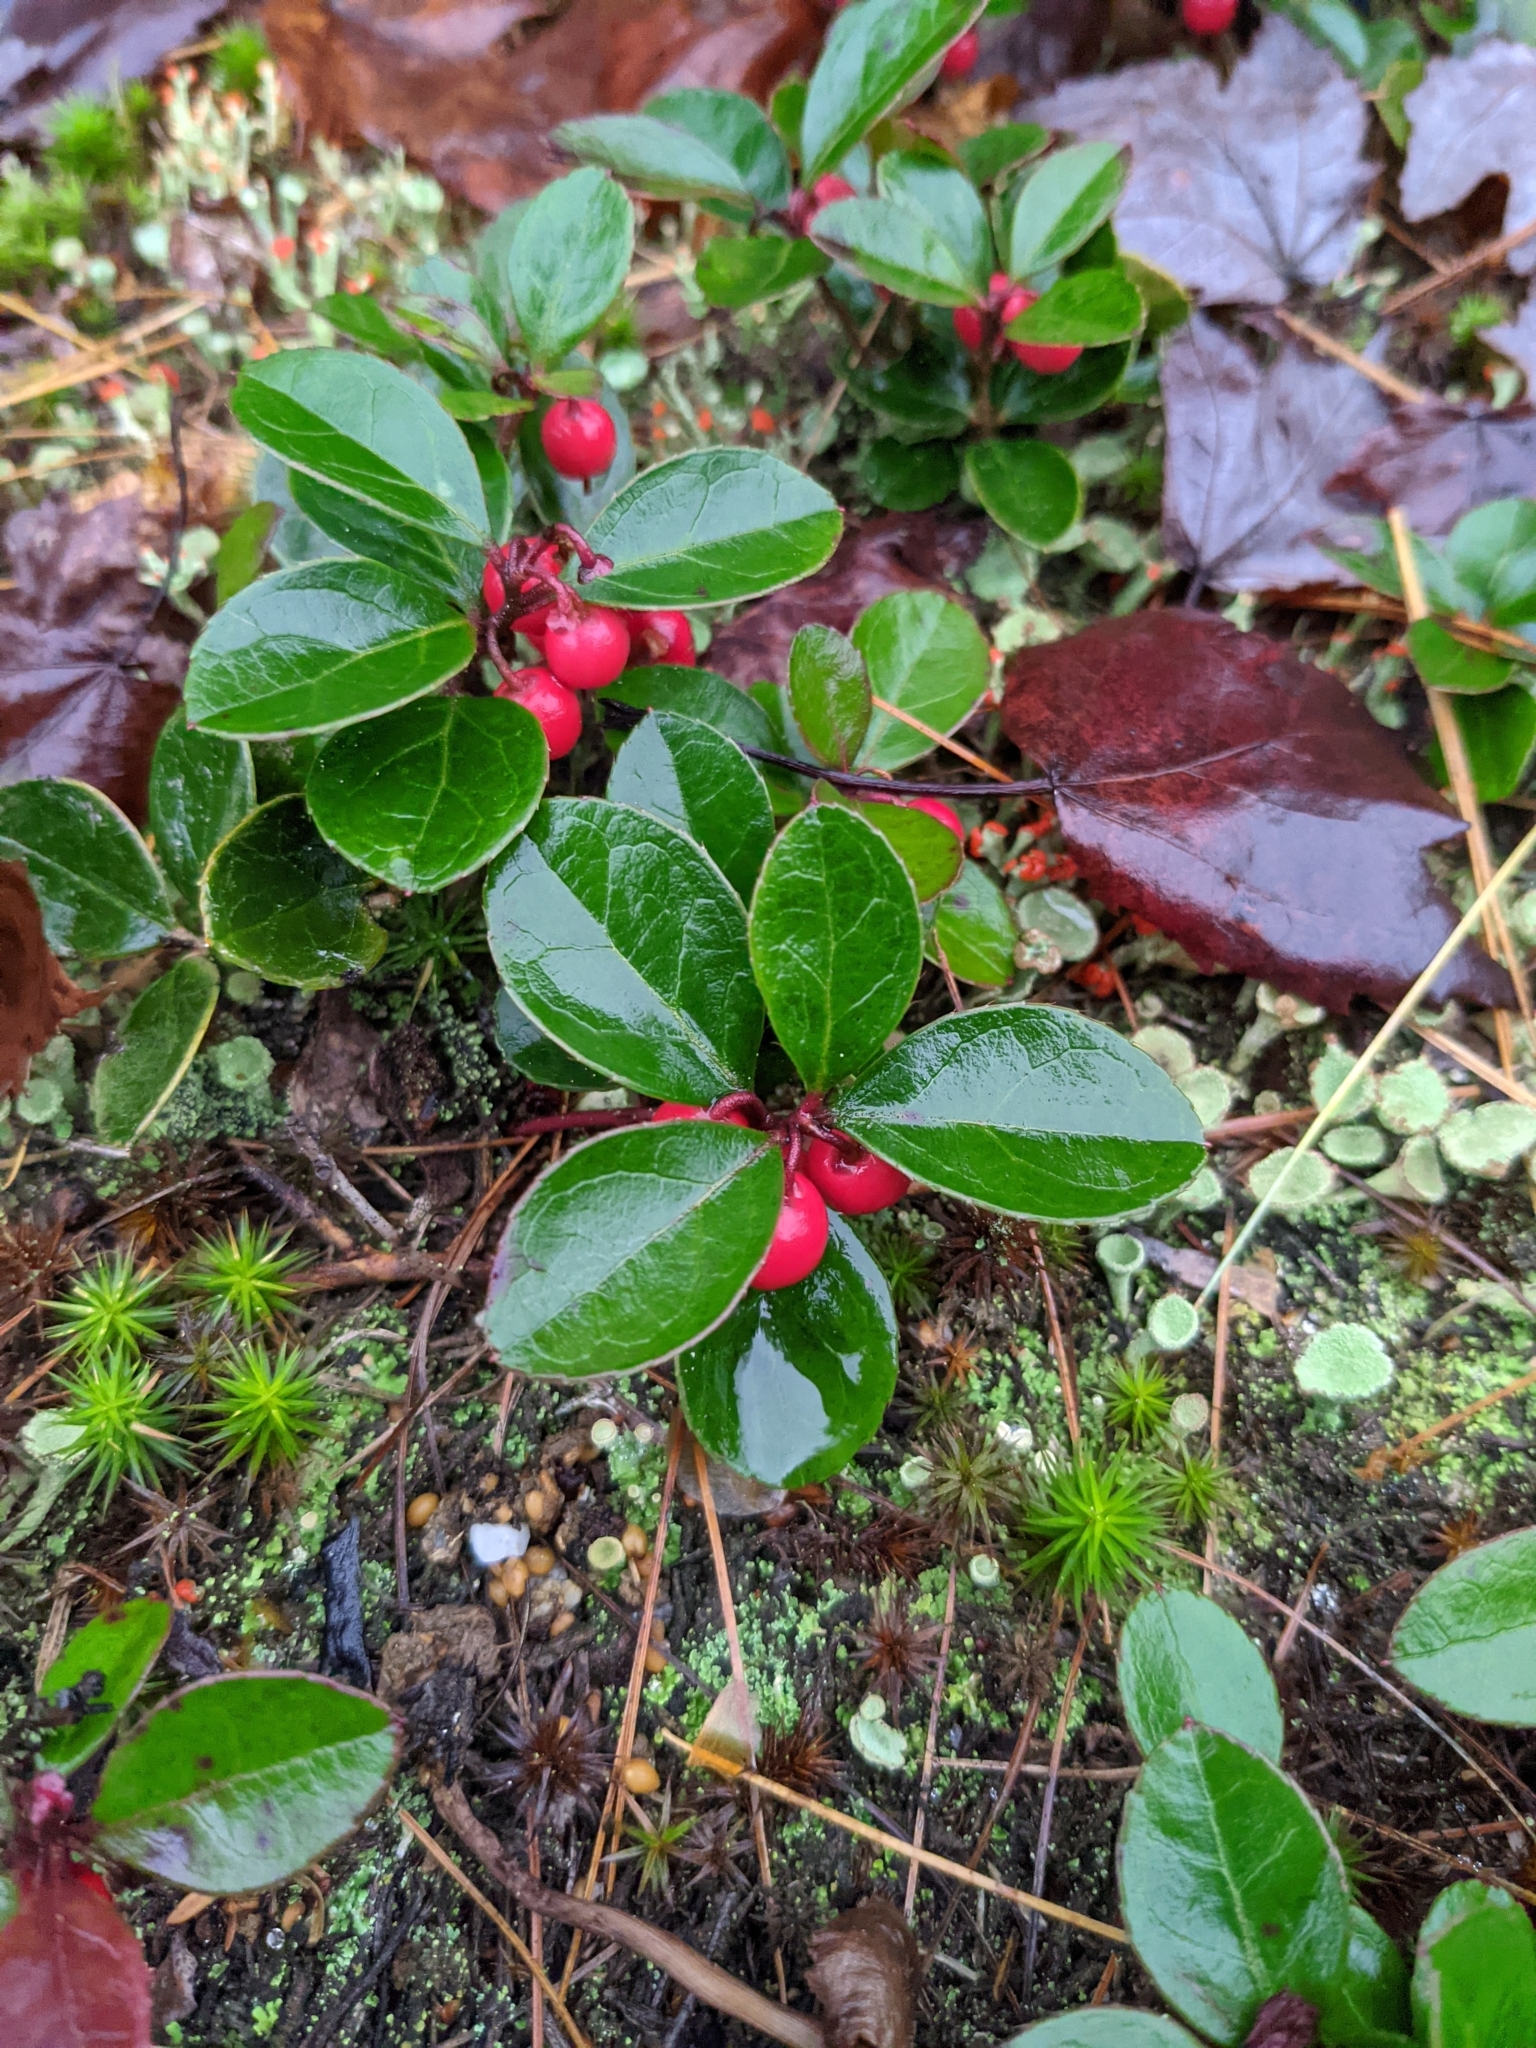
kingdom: Plantae
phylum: Tracheophyta
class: Magnoliopsida
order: Ericales
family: Ericaceae
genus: Gaultheria
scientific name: Gaultheria procumbens
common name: Checkerberry
